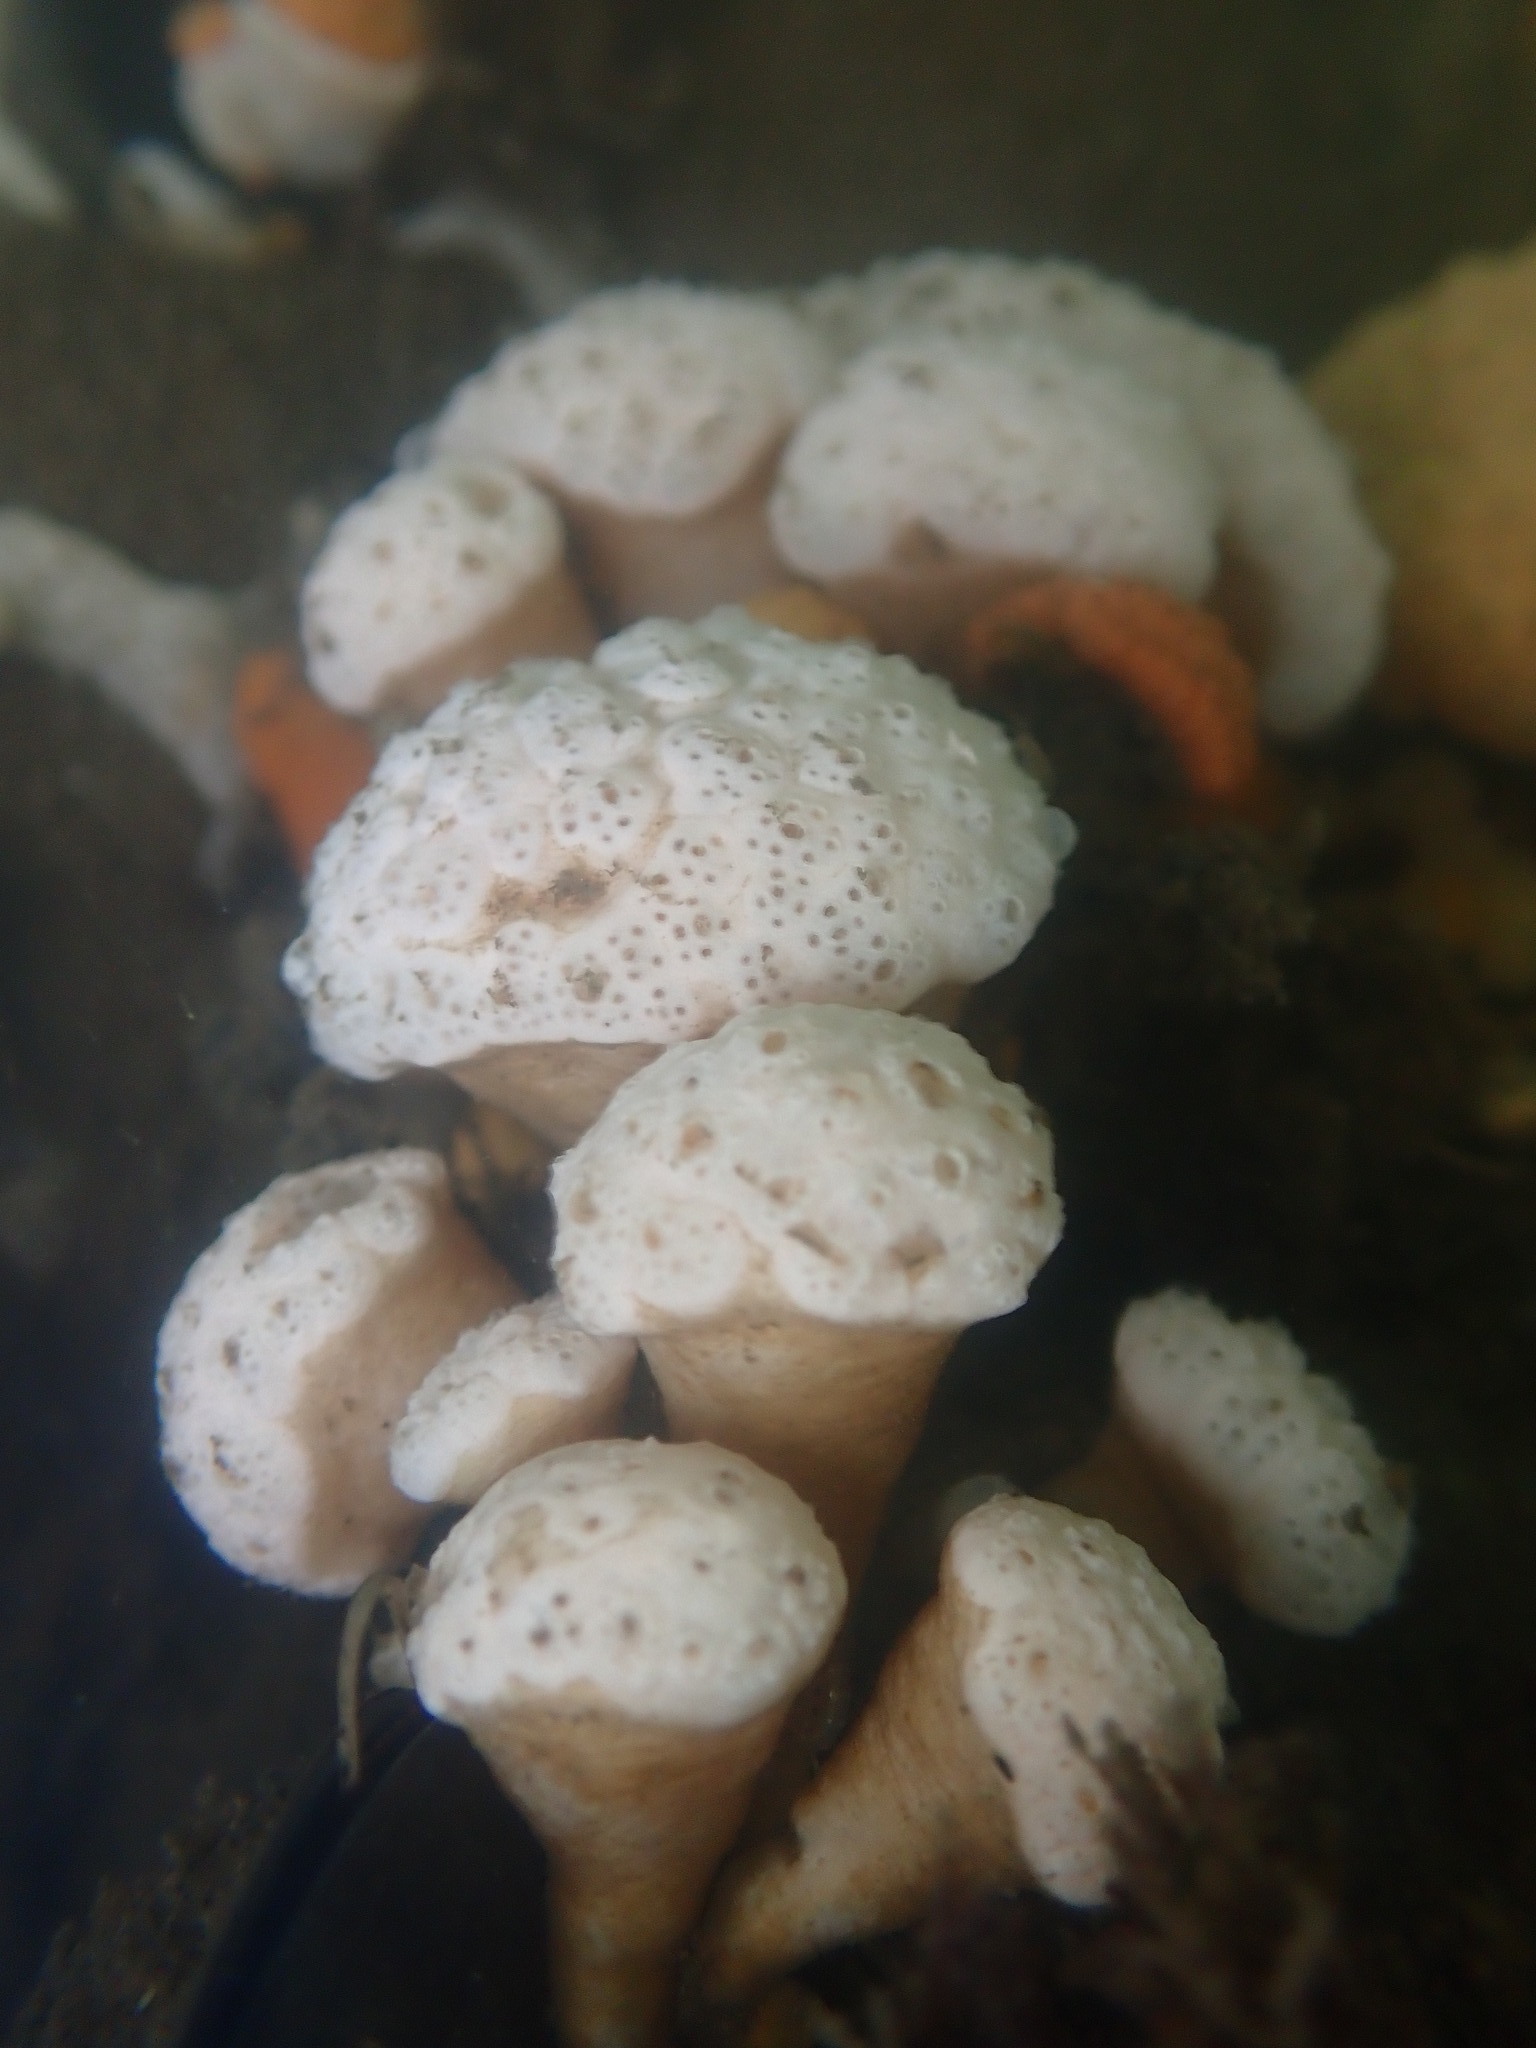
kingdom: Animalia
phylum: Chordata
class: Ascidiacea
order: Aplousobranchia
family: Holozoidae
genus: Distaplia
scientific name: Distaplia occidentalis
